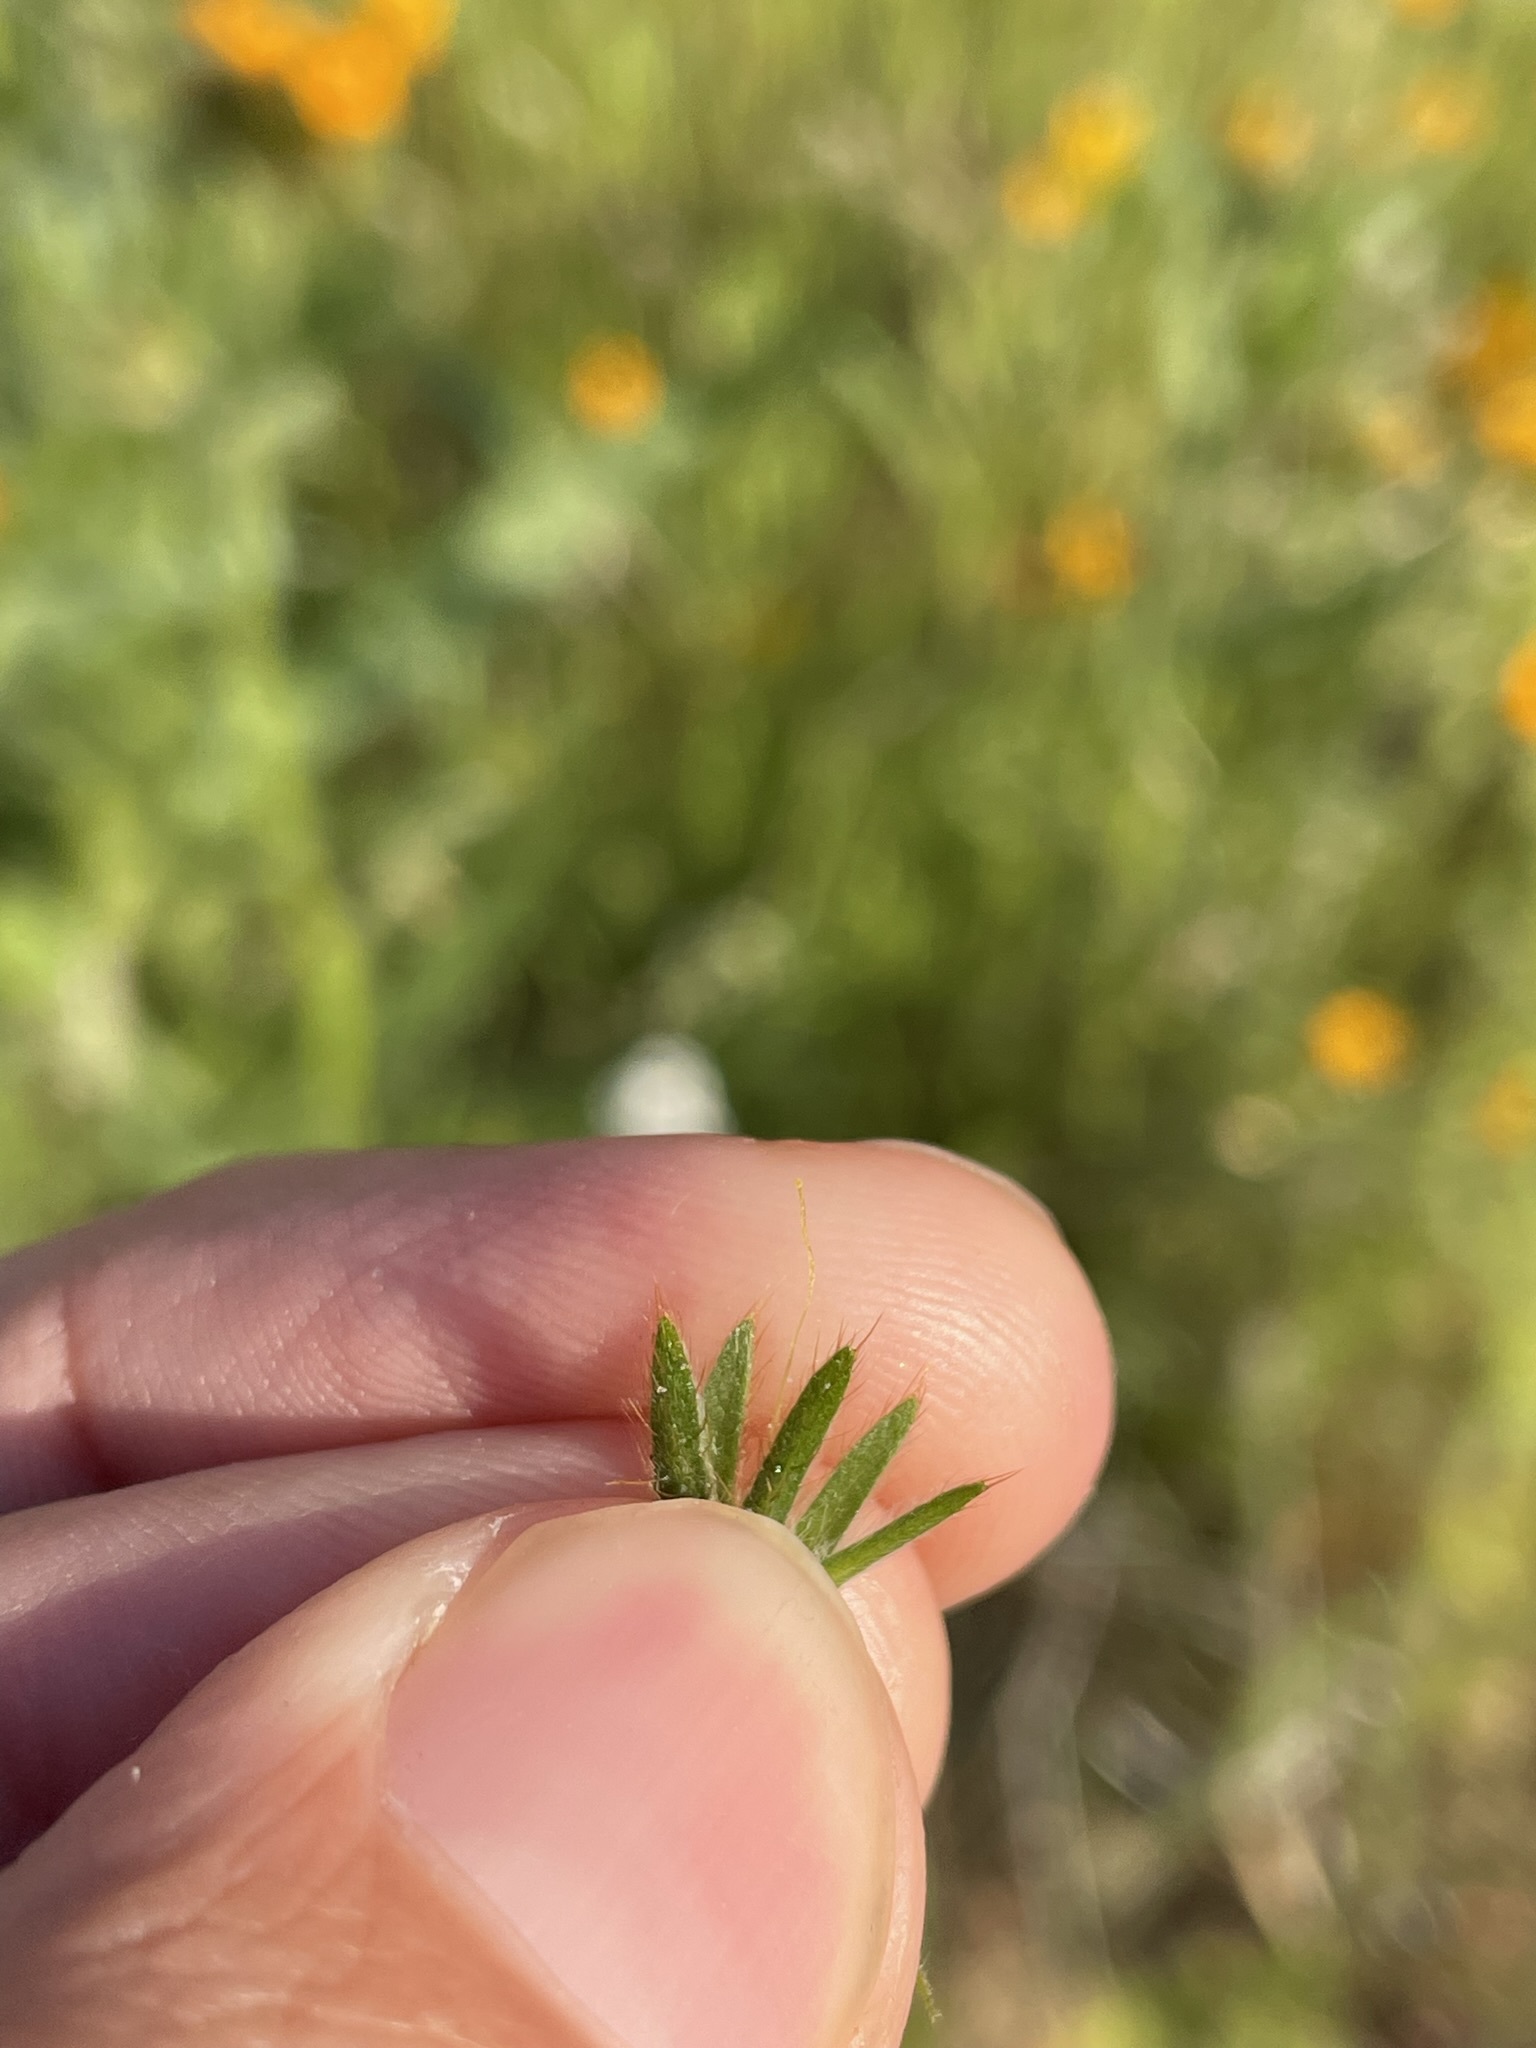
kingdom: Plantae
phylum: Tracheophyta
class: Magnoliopsida
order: Boraginales
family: Boraginaceae
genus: Amsinckia
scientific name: Amsinckia eastwoodiae
